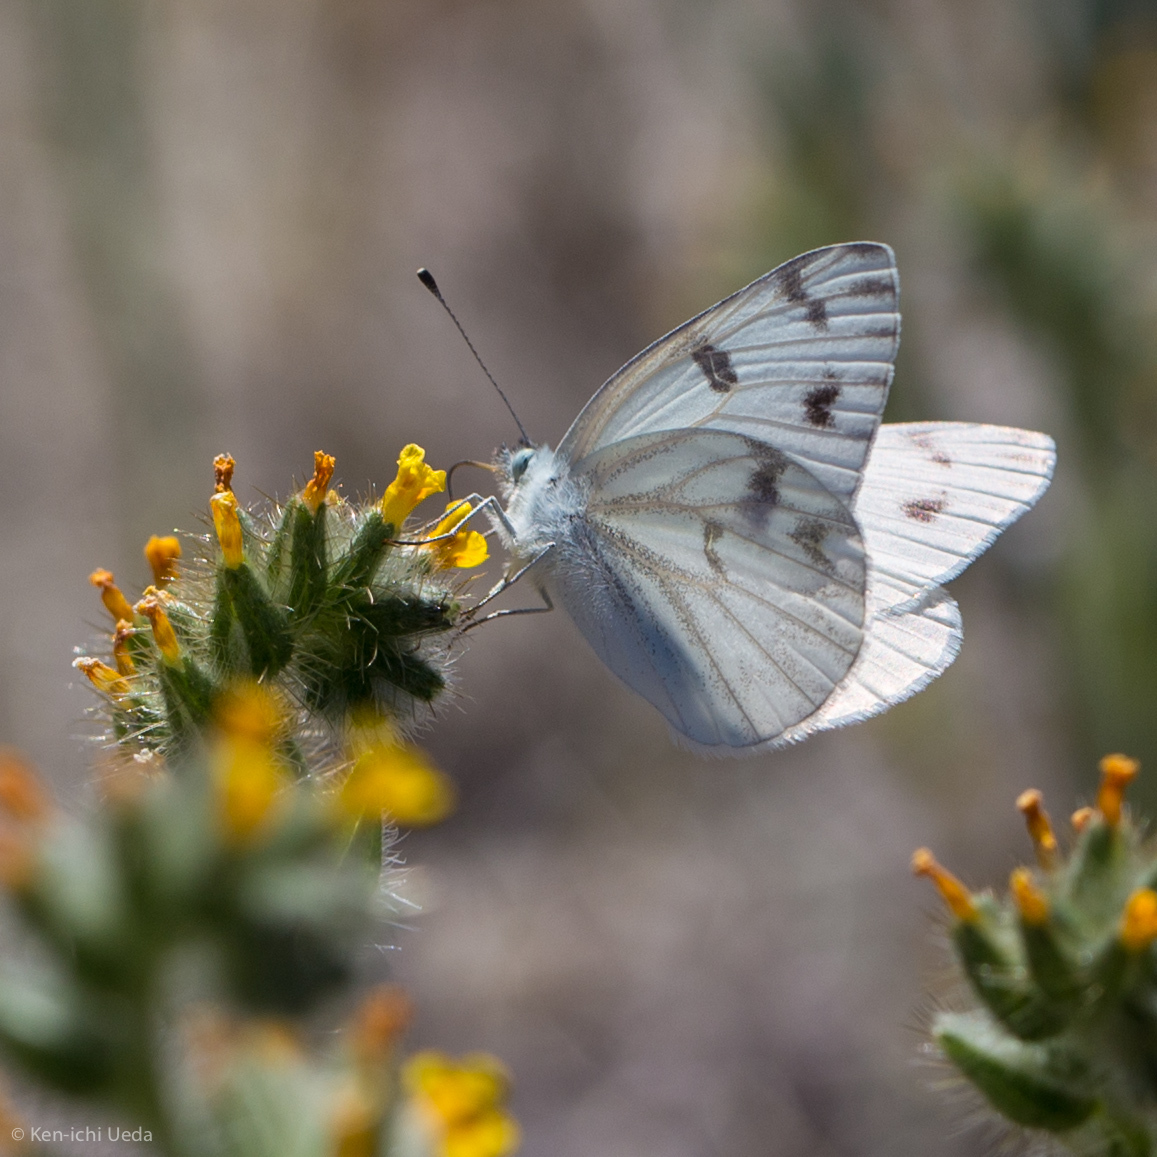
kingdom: Animalia
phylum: Arthropoda
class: Insecta
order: Lepidoptera
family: Pieridae
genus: Pontia
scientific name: Pontia protodice
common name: Checkered white
